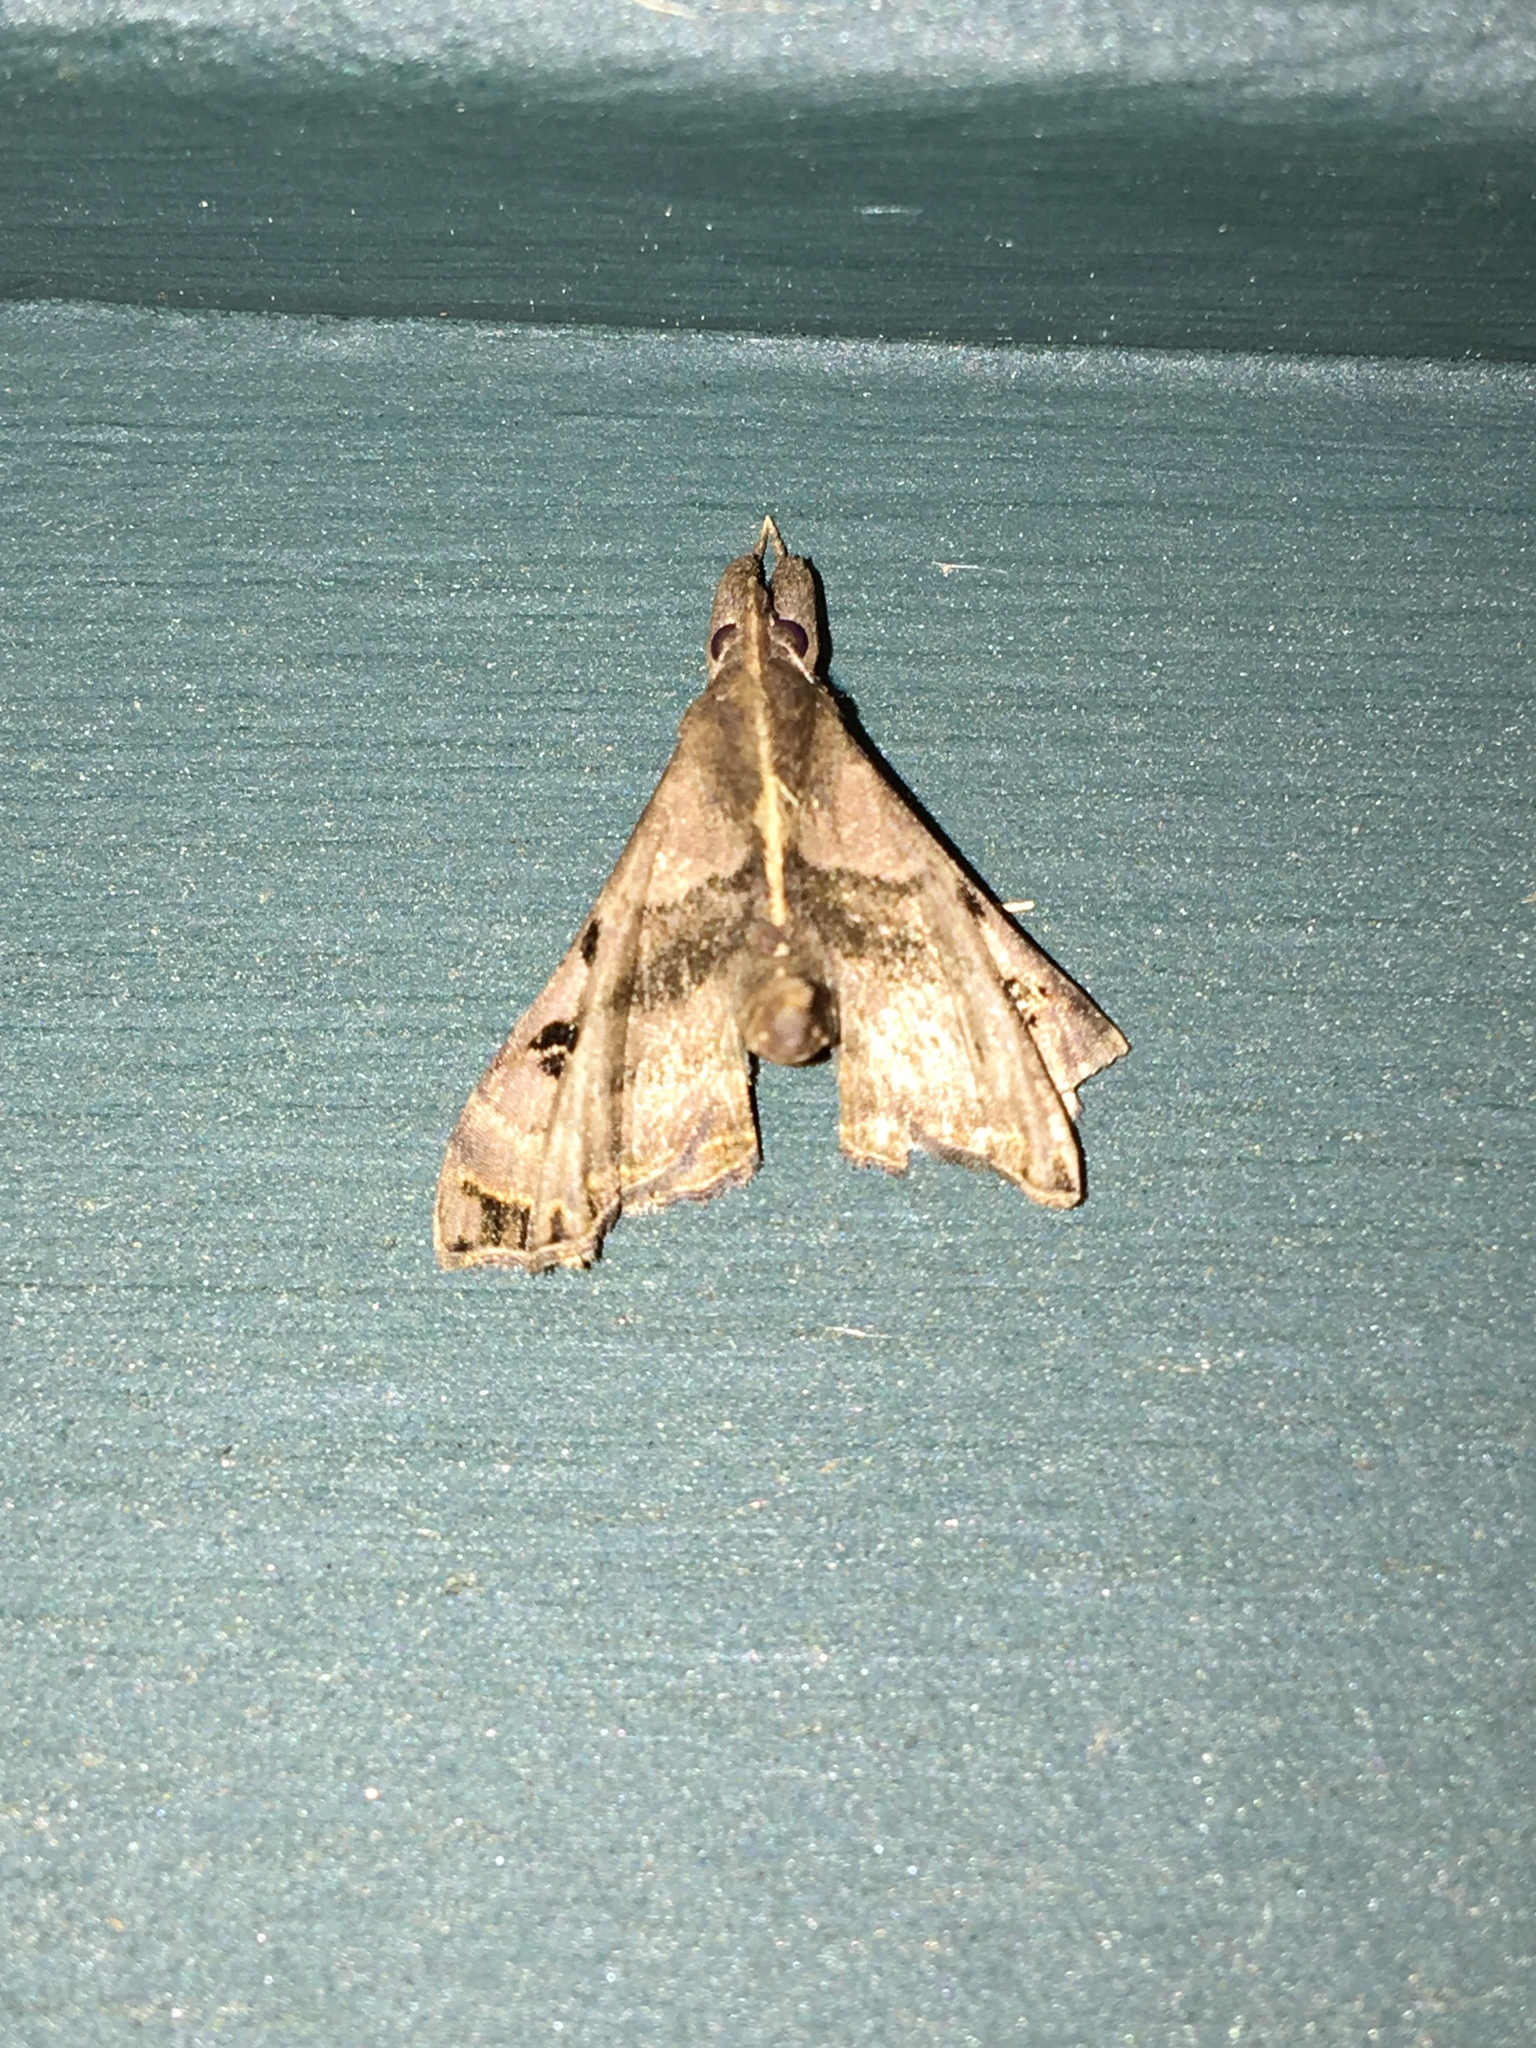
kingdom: Animalia
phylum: Arthropoda
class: Insecta
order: Lepidoptera
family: Erebidae
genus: Palthis
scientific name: Palthis asopialis
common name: Faint-spotted palthis moth
